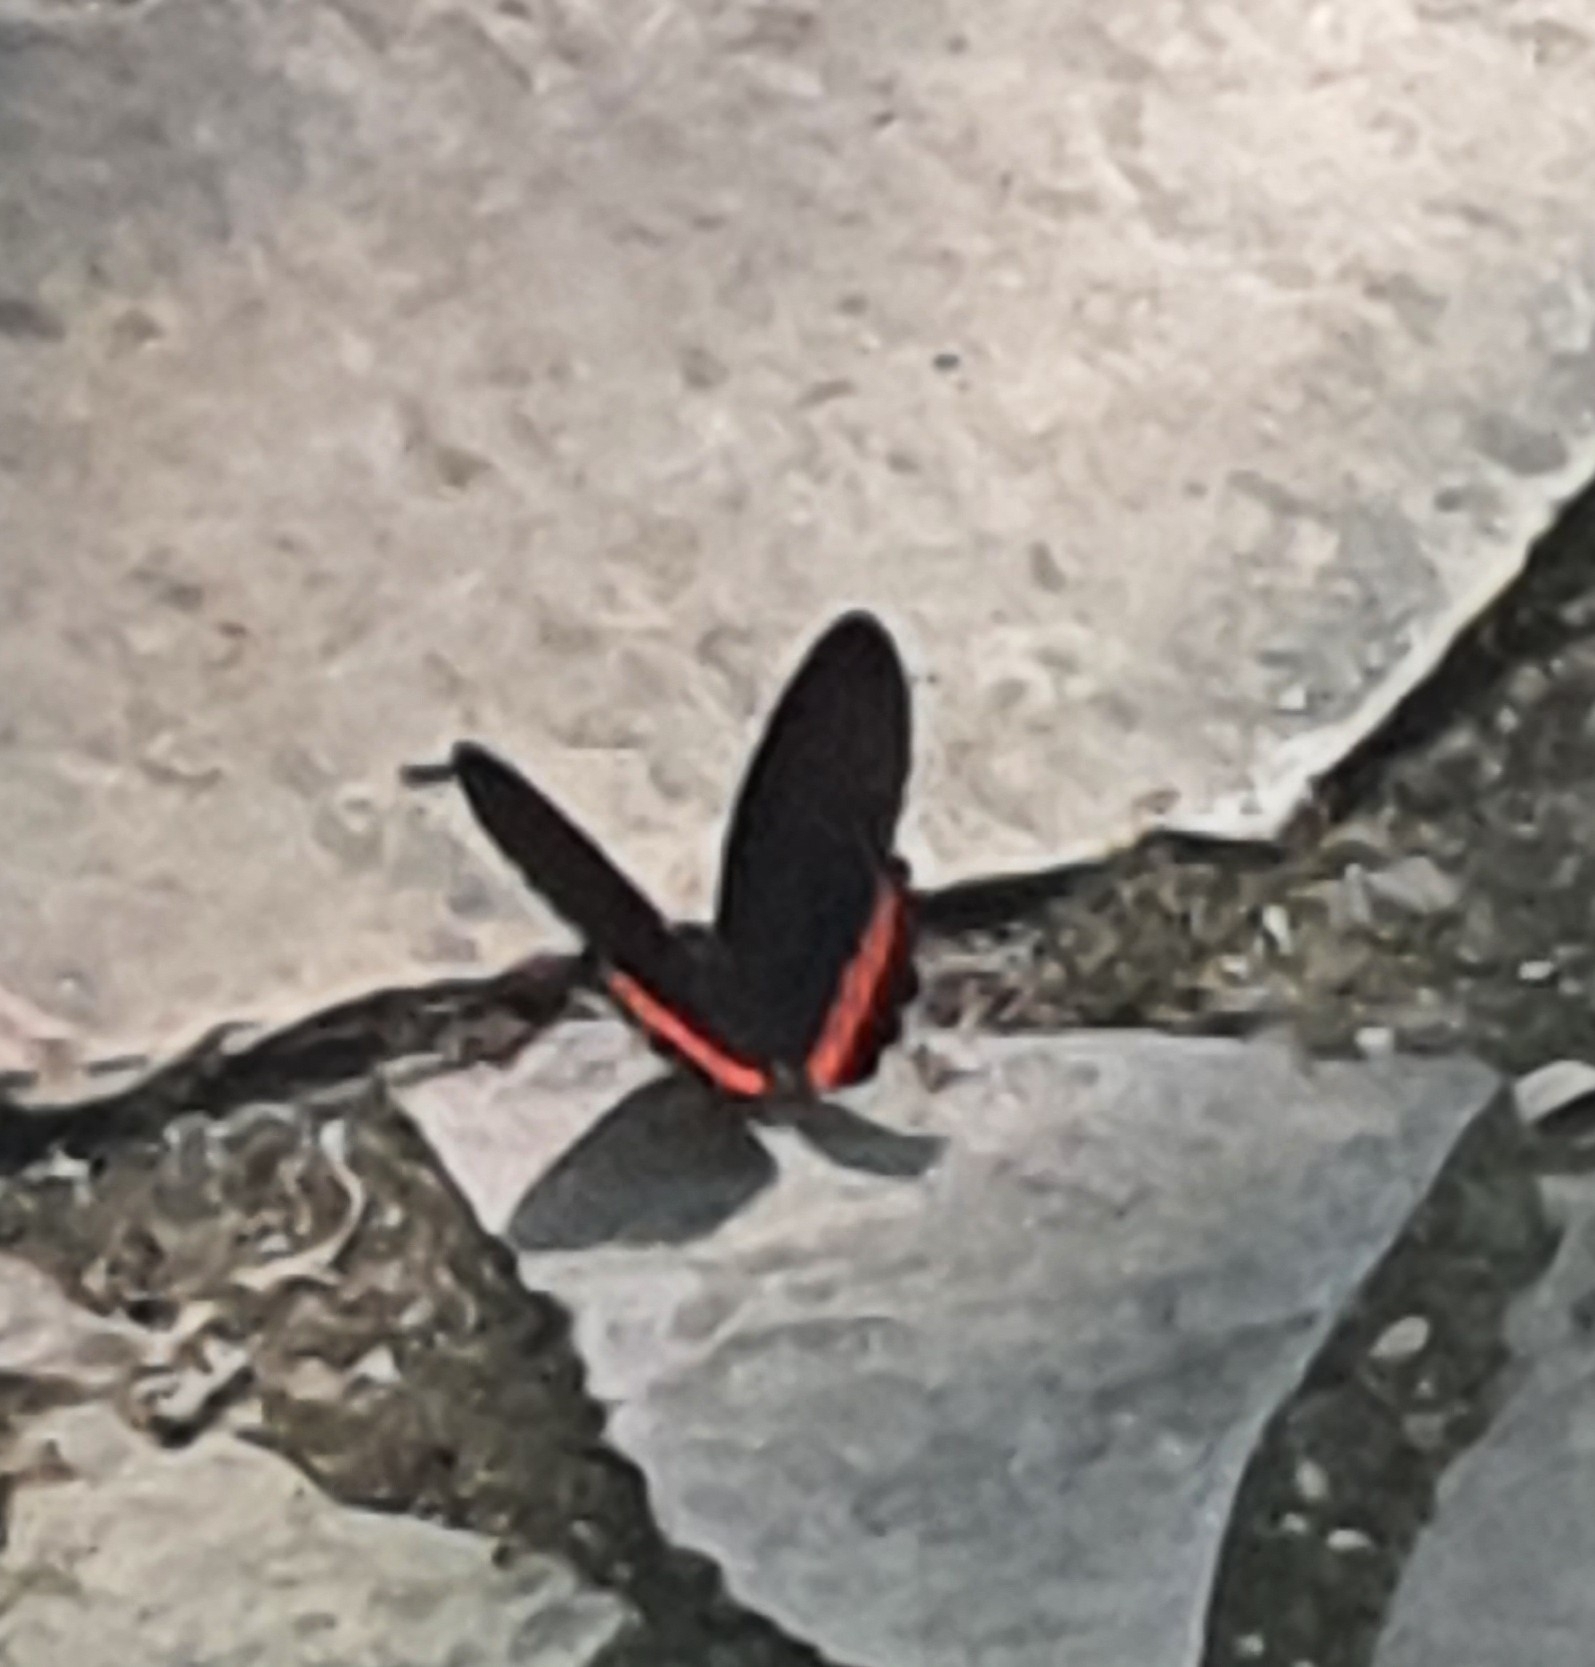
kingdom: Animalia
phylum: Arthropoda
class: Insecta
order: Lepidoptera
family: Nymphalidae
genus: Biblis
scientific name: Biblis aganisa
